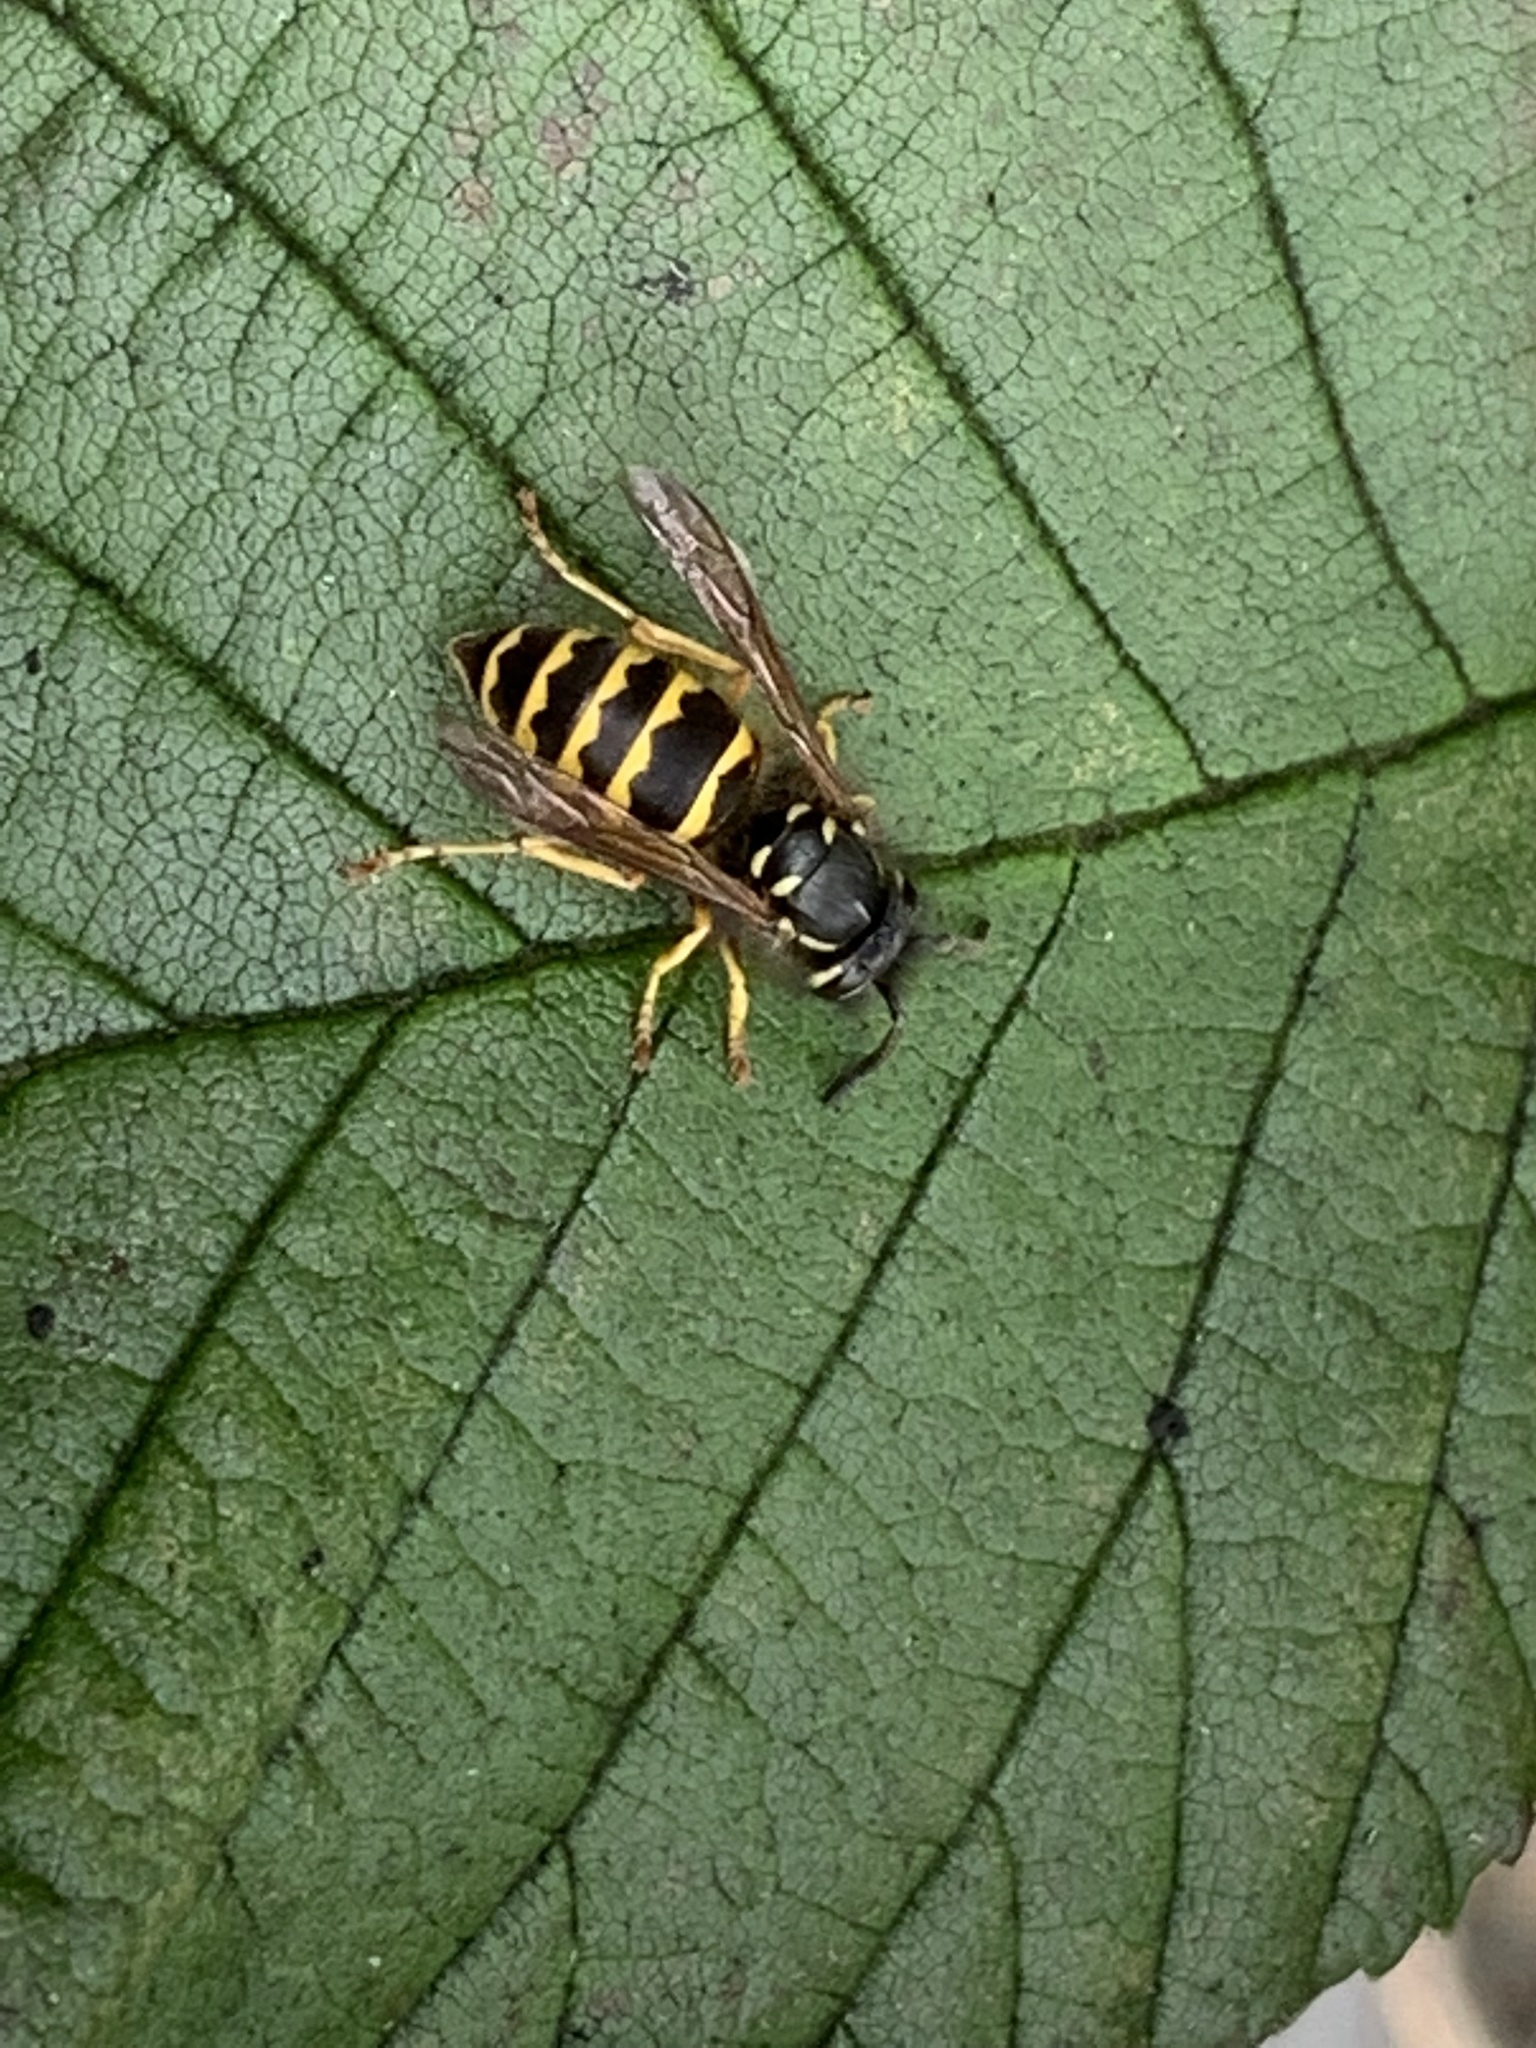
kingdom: Animalia
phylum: Arthropoda
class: Insecta
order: Hymenoptera
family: Vespidae
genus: Vespula
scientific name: Vespula alascensis
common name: Alaska yellowjacket
